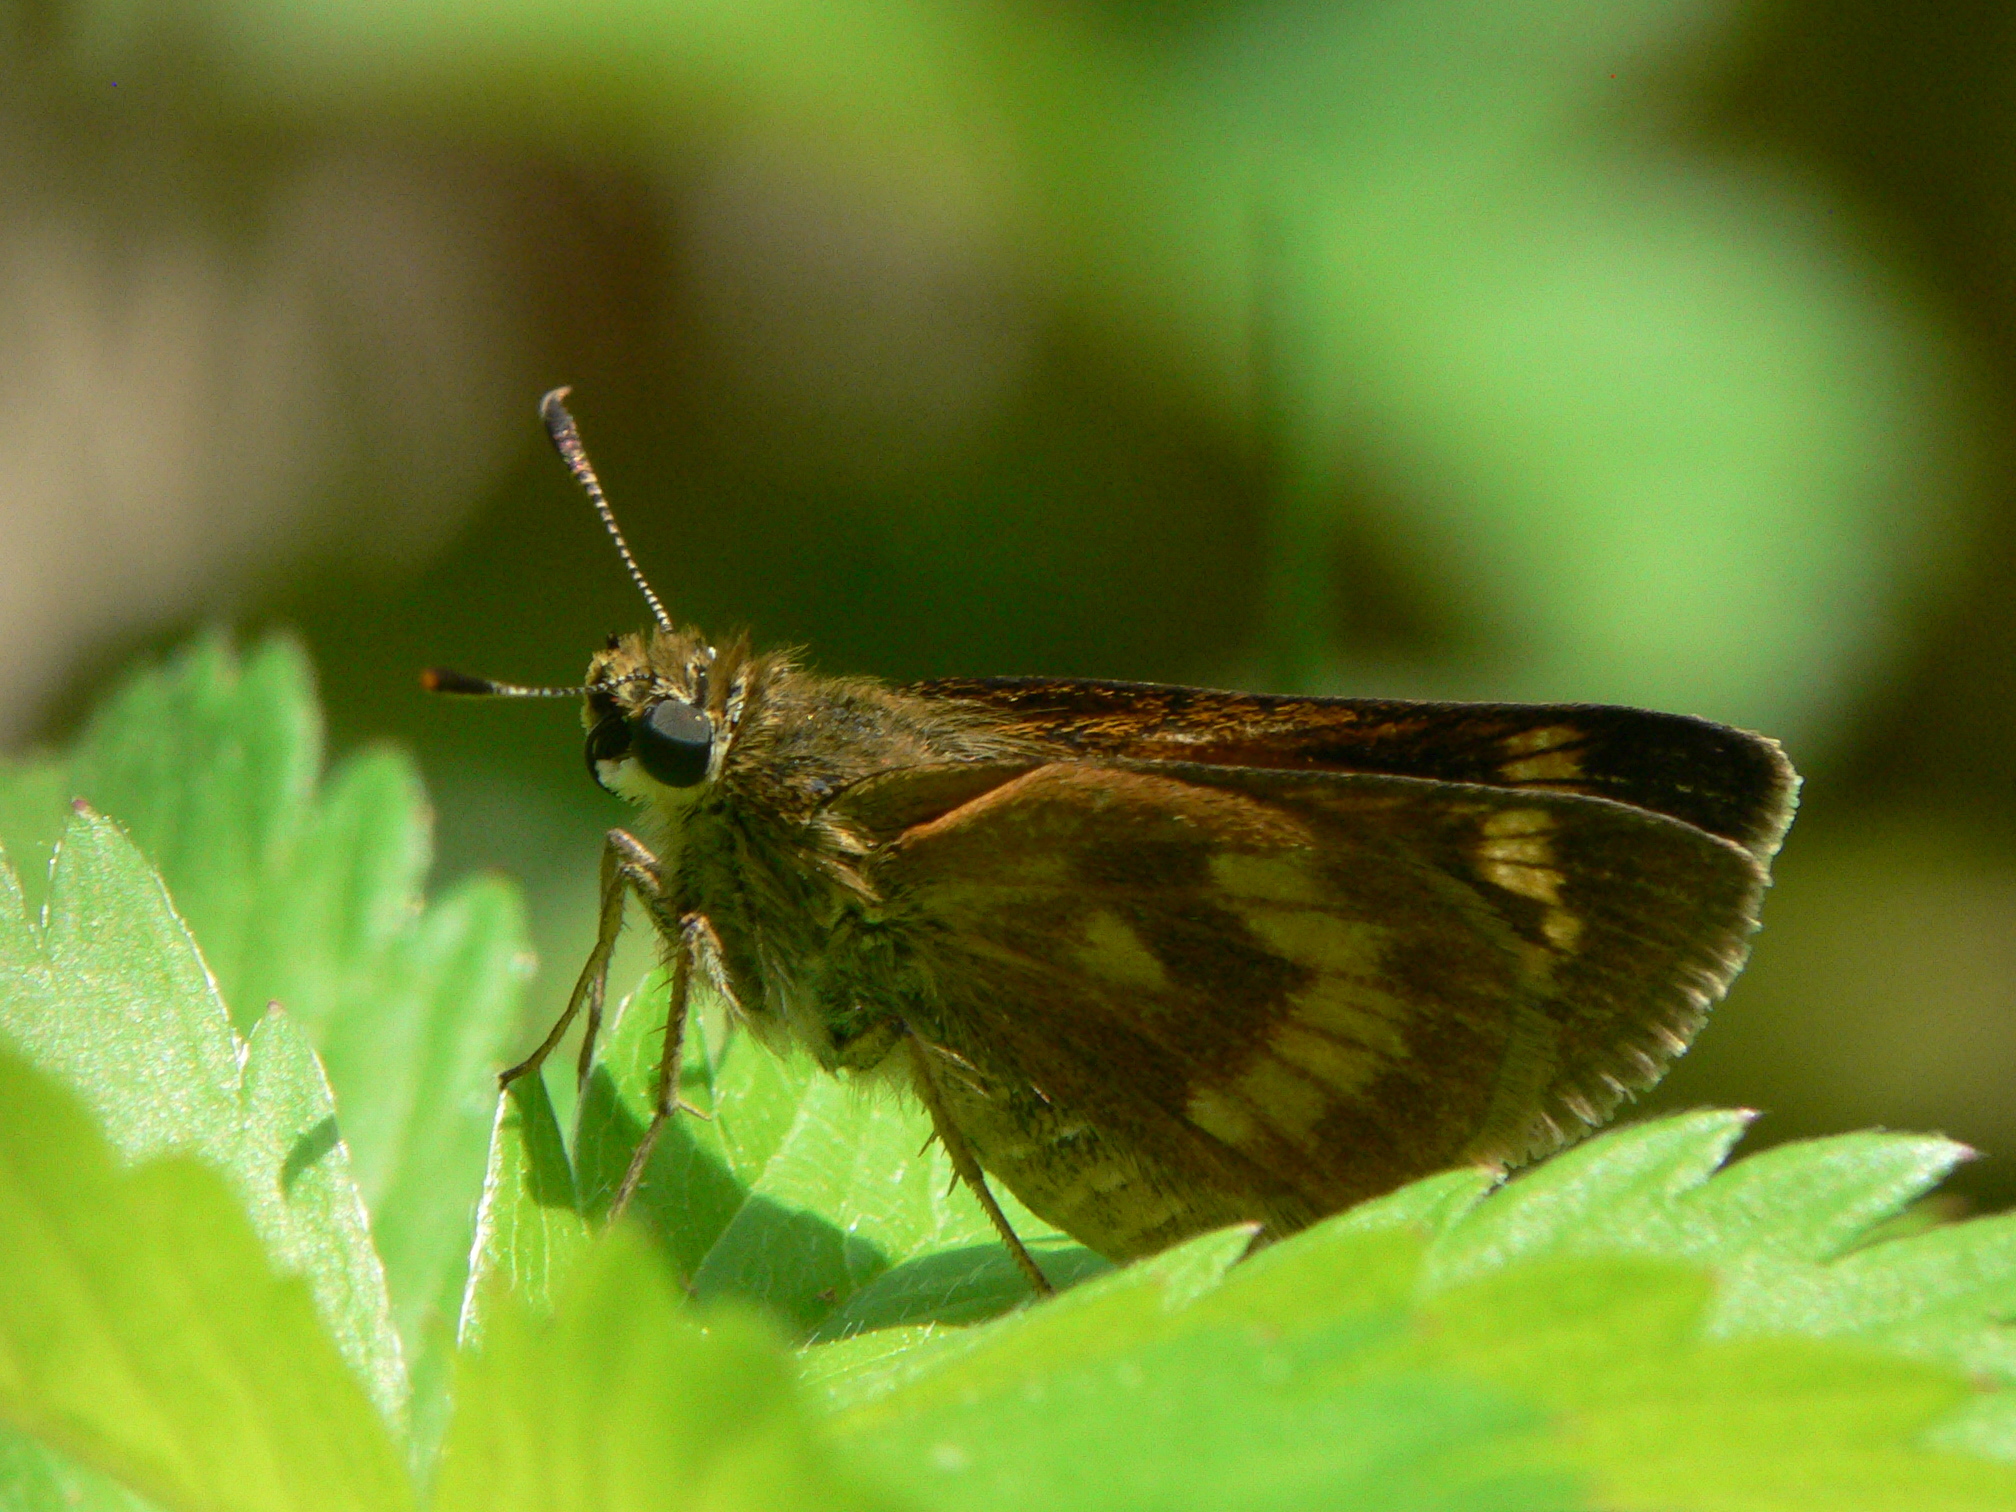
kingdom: Animalia
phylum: Arthropoda
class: Insecta
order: Lepidoptera
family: Hesperiidae
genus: Polites
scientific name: Polites mystic
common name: Long dash
